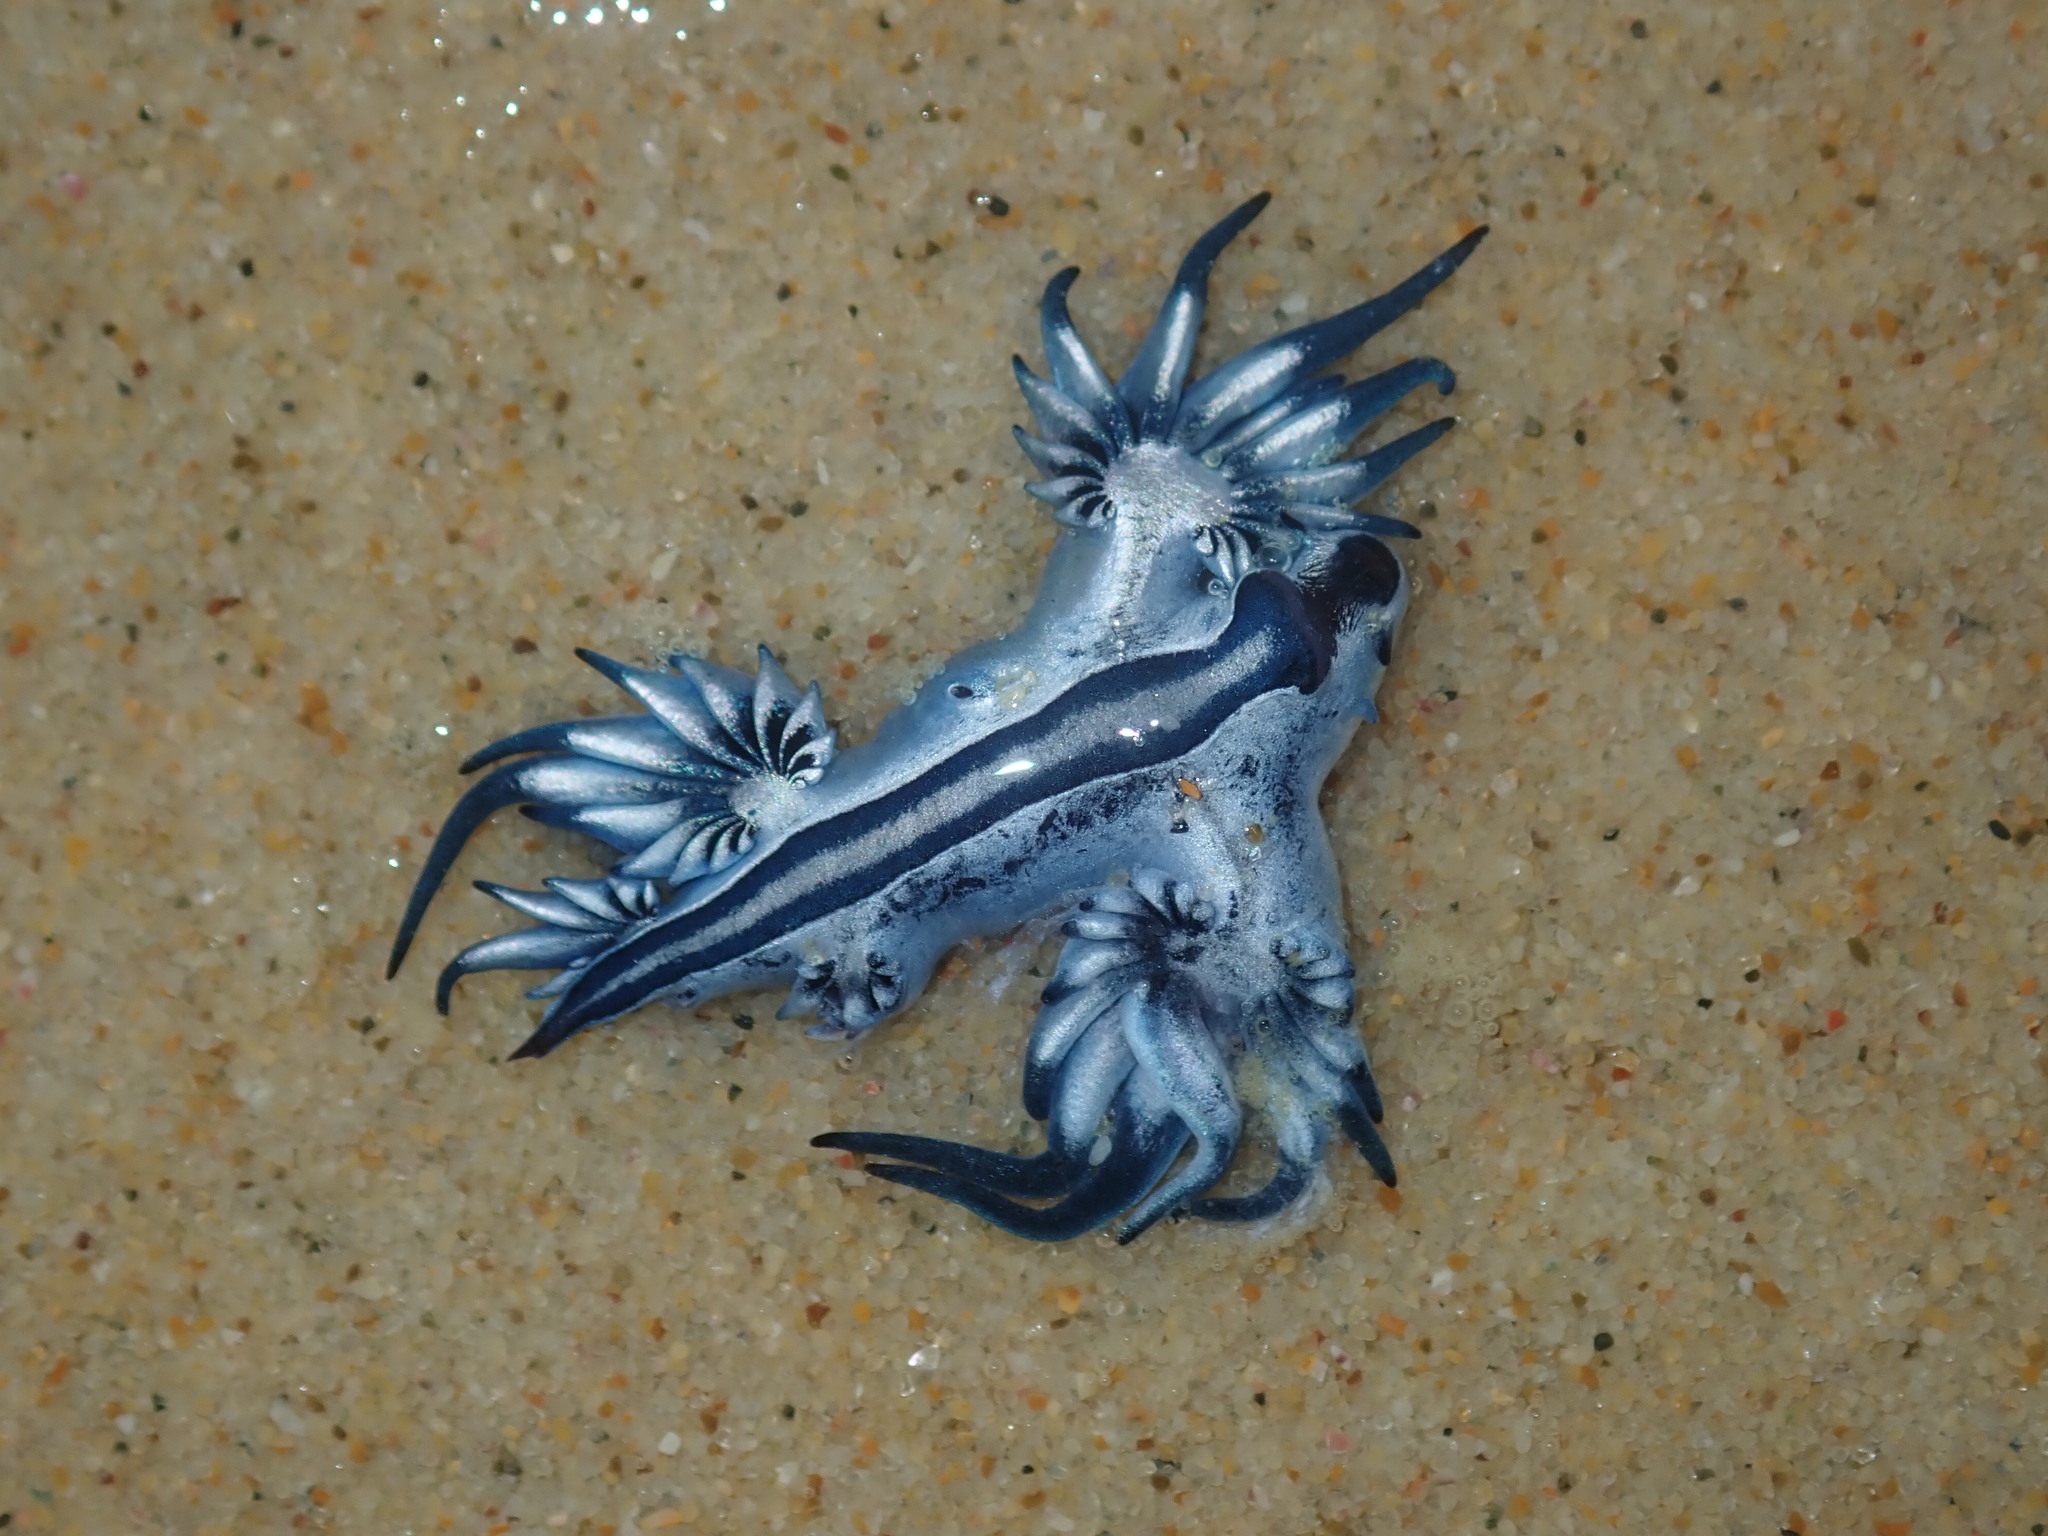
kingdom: Animalia
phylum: Mollusca
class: Gastropoda
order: Nudibranchia
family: Glaucidae
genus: Glaucus
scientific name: Glaucus atlanticus
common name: Purple ocean slug
